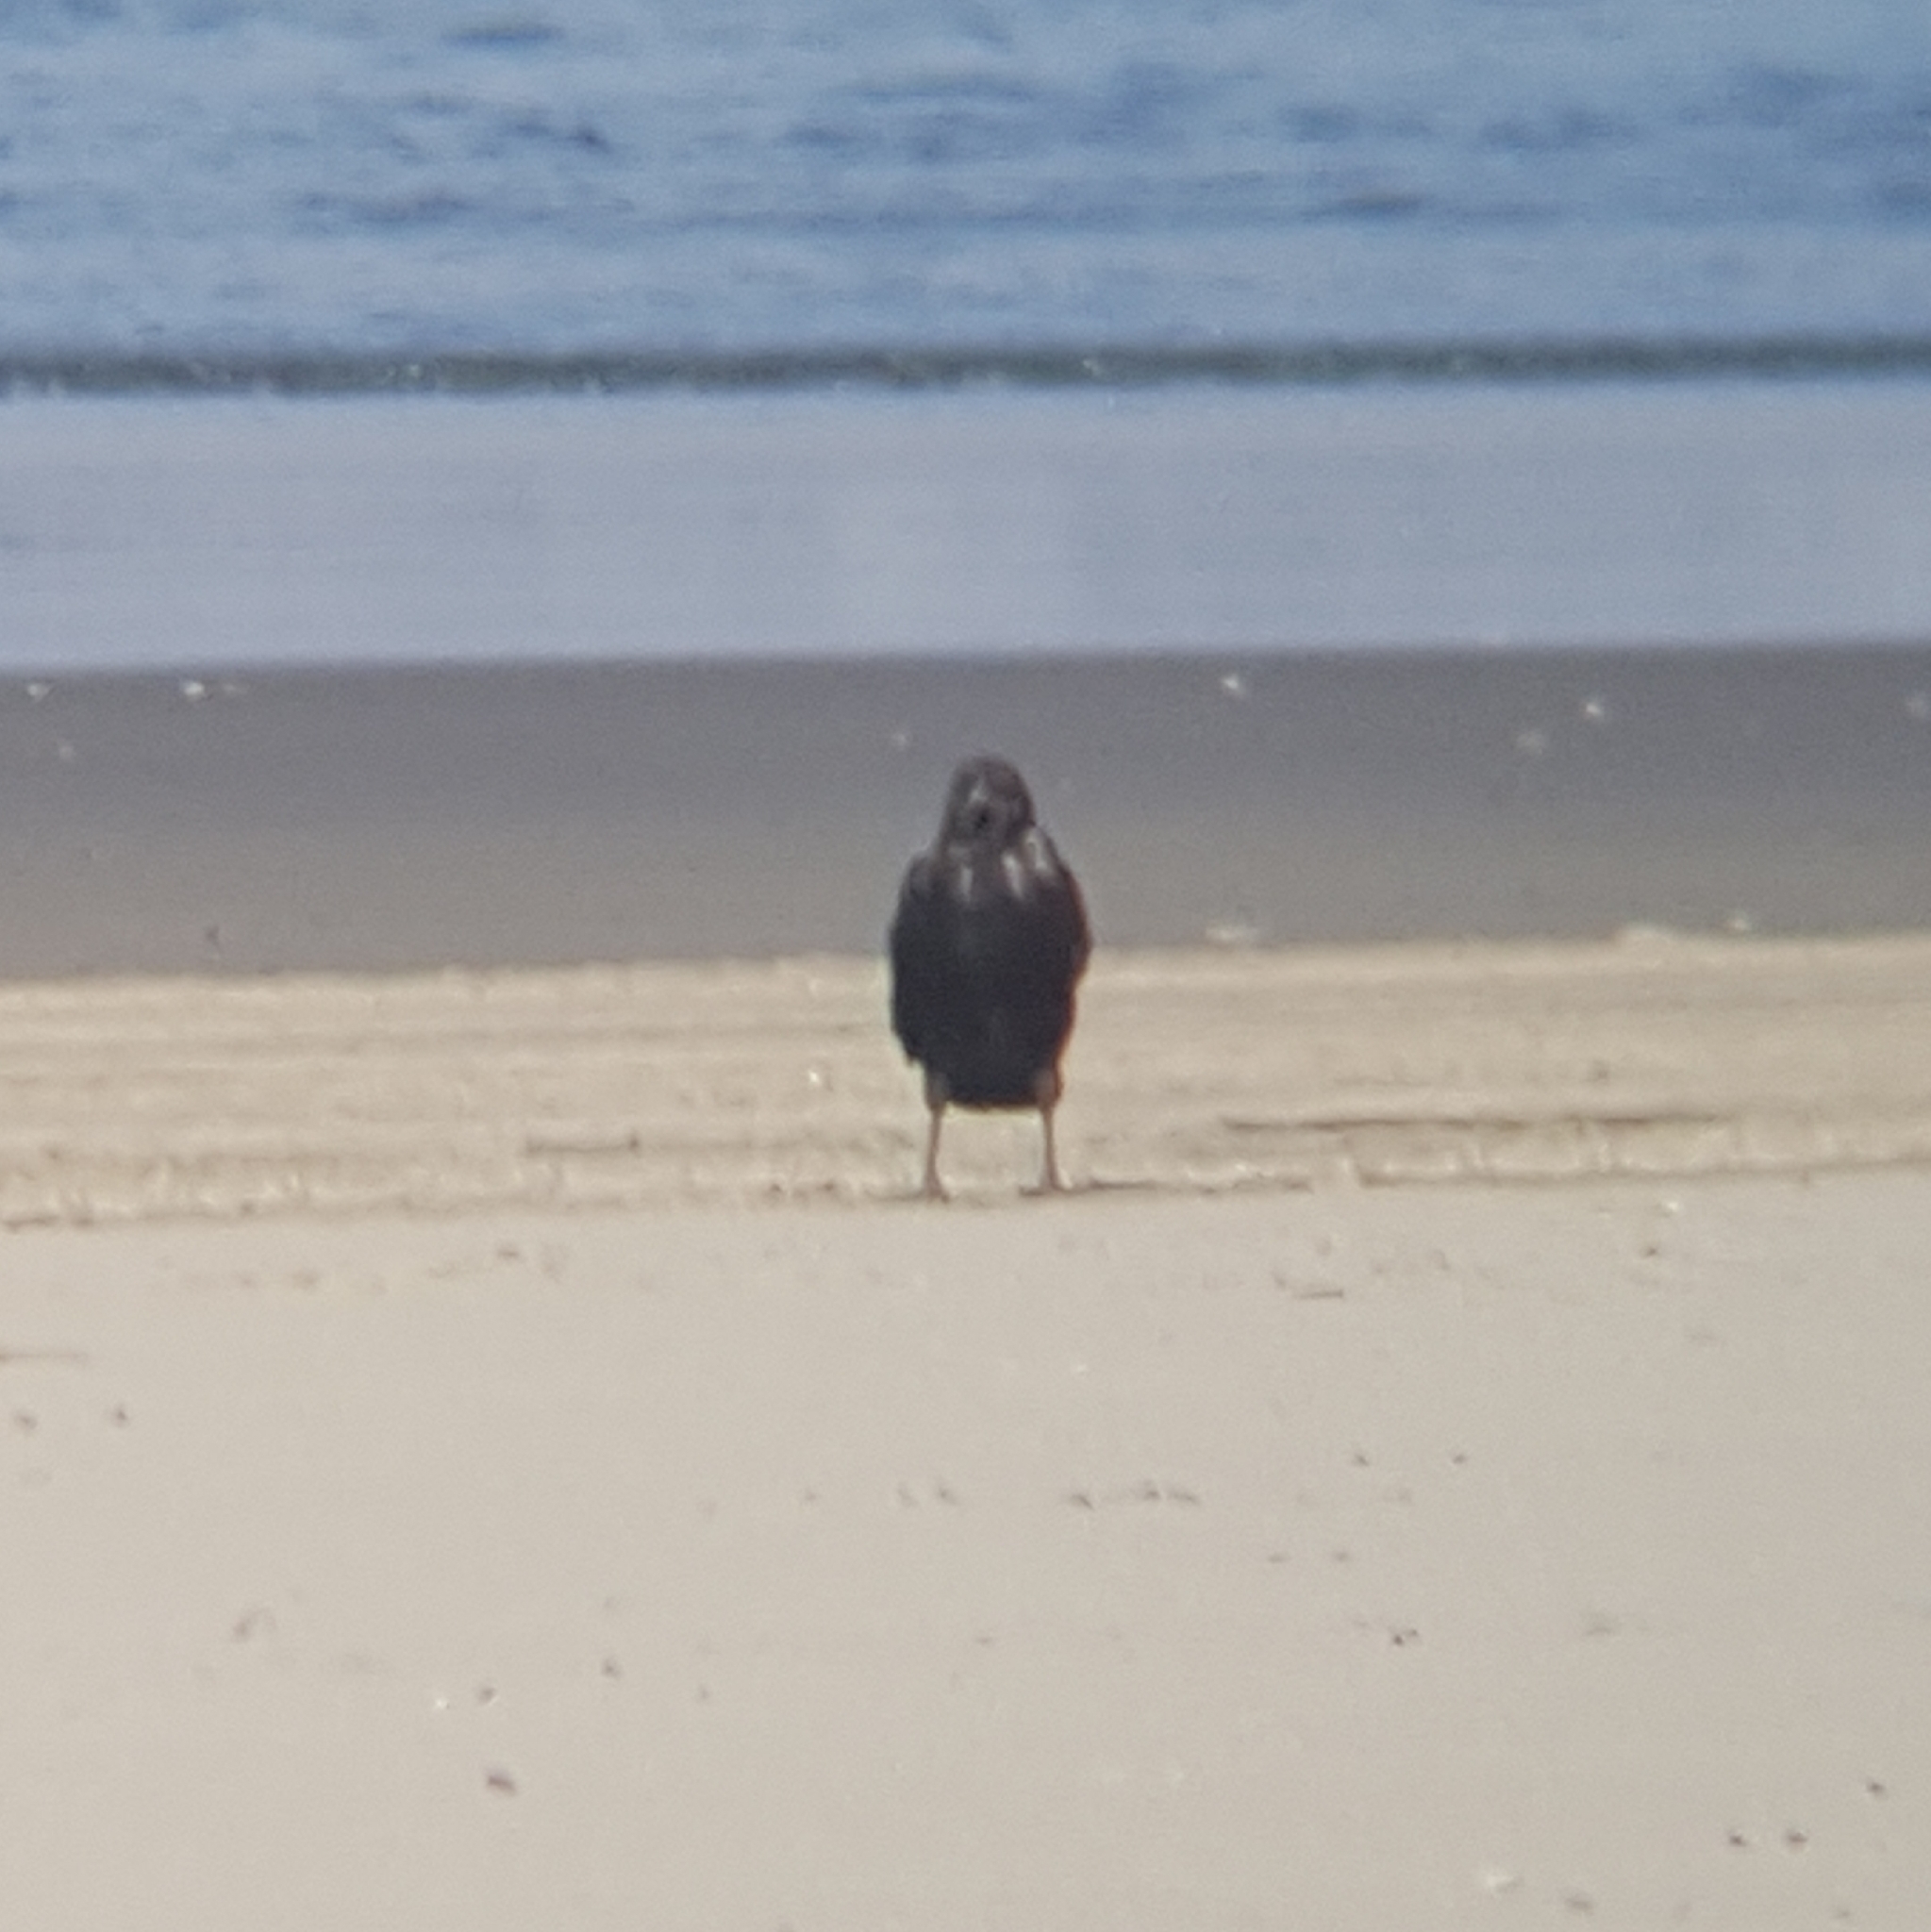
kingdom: Animalia
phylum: Chordata
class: Aves
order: Passeriformes
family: Corvidae
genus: Corvus
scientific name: Corvus brachyrhynchos
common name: American crow
